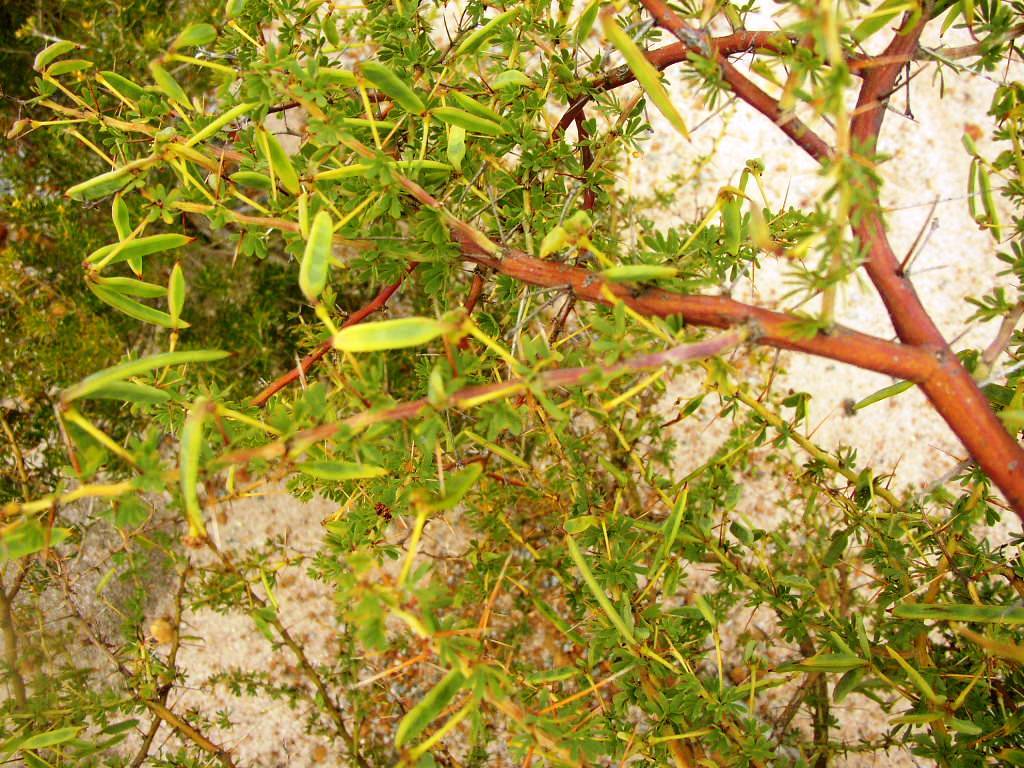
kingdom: Plantae
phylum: Tracheophyta
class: Magnoliopsida
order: Fabales
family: Fabaceae
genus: Acacia
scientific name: Acacia pulchella
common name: Prickly moses
